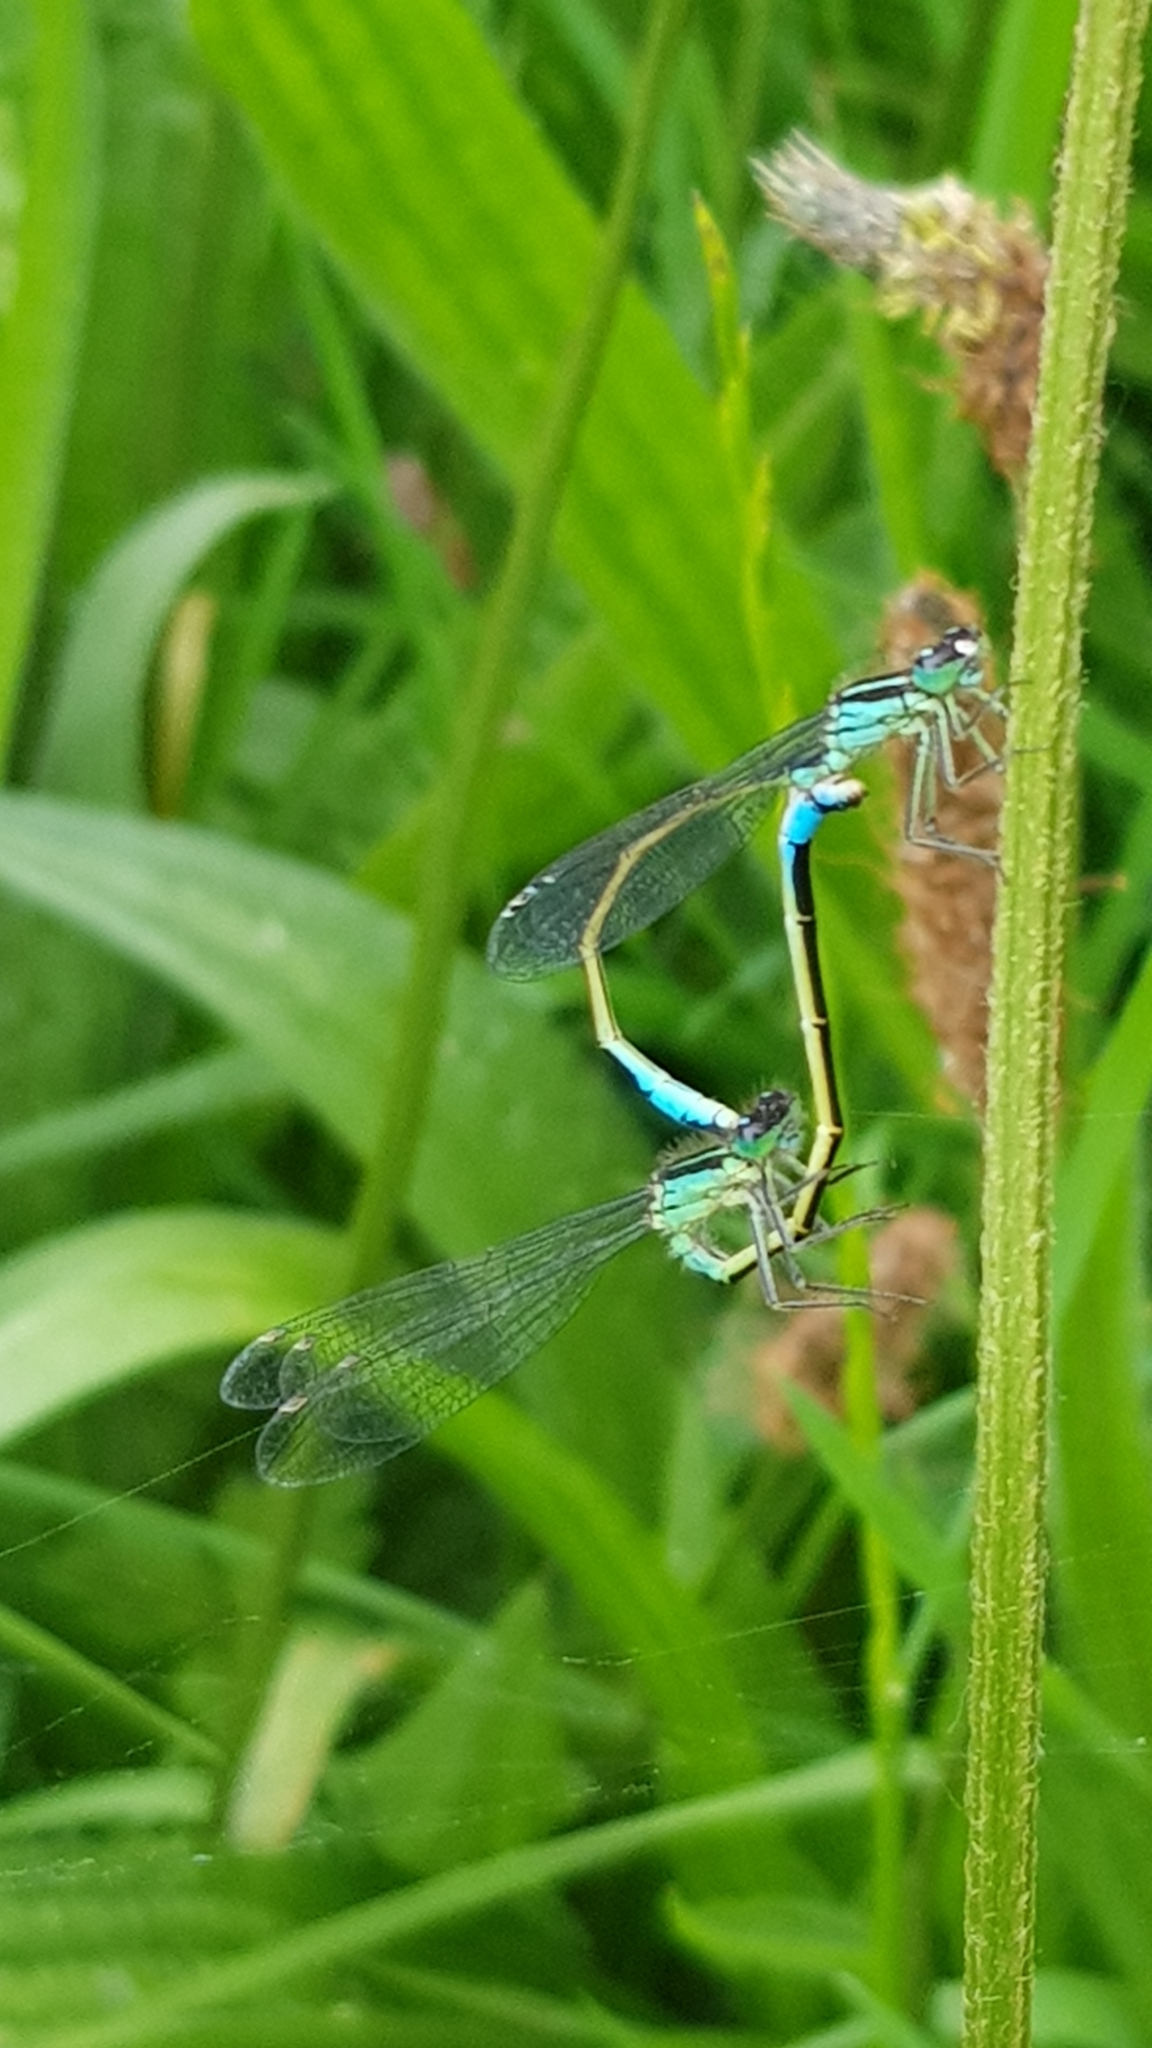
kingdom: Animalia
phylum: Arthropoda
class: Insecta
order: Odonata
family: Coenagrionidae
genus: Ischnura
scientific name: Ischnura elegans
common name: Blue-tailed damselfly
